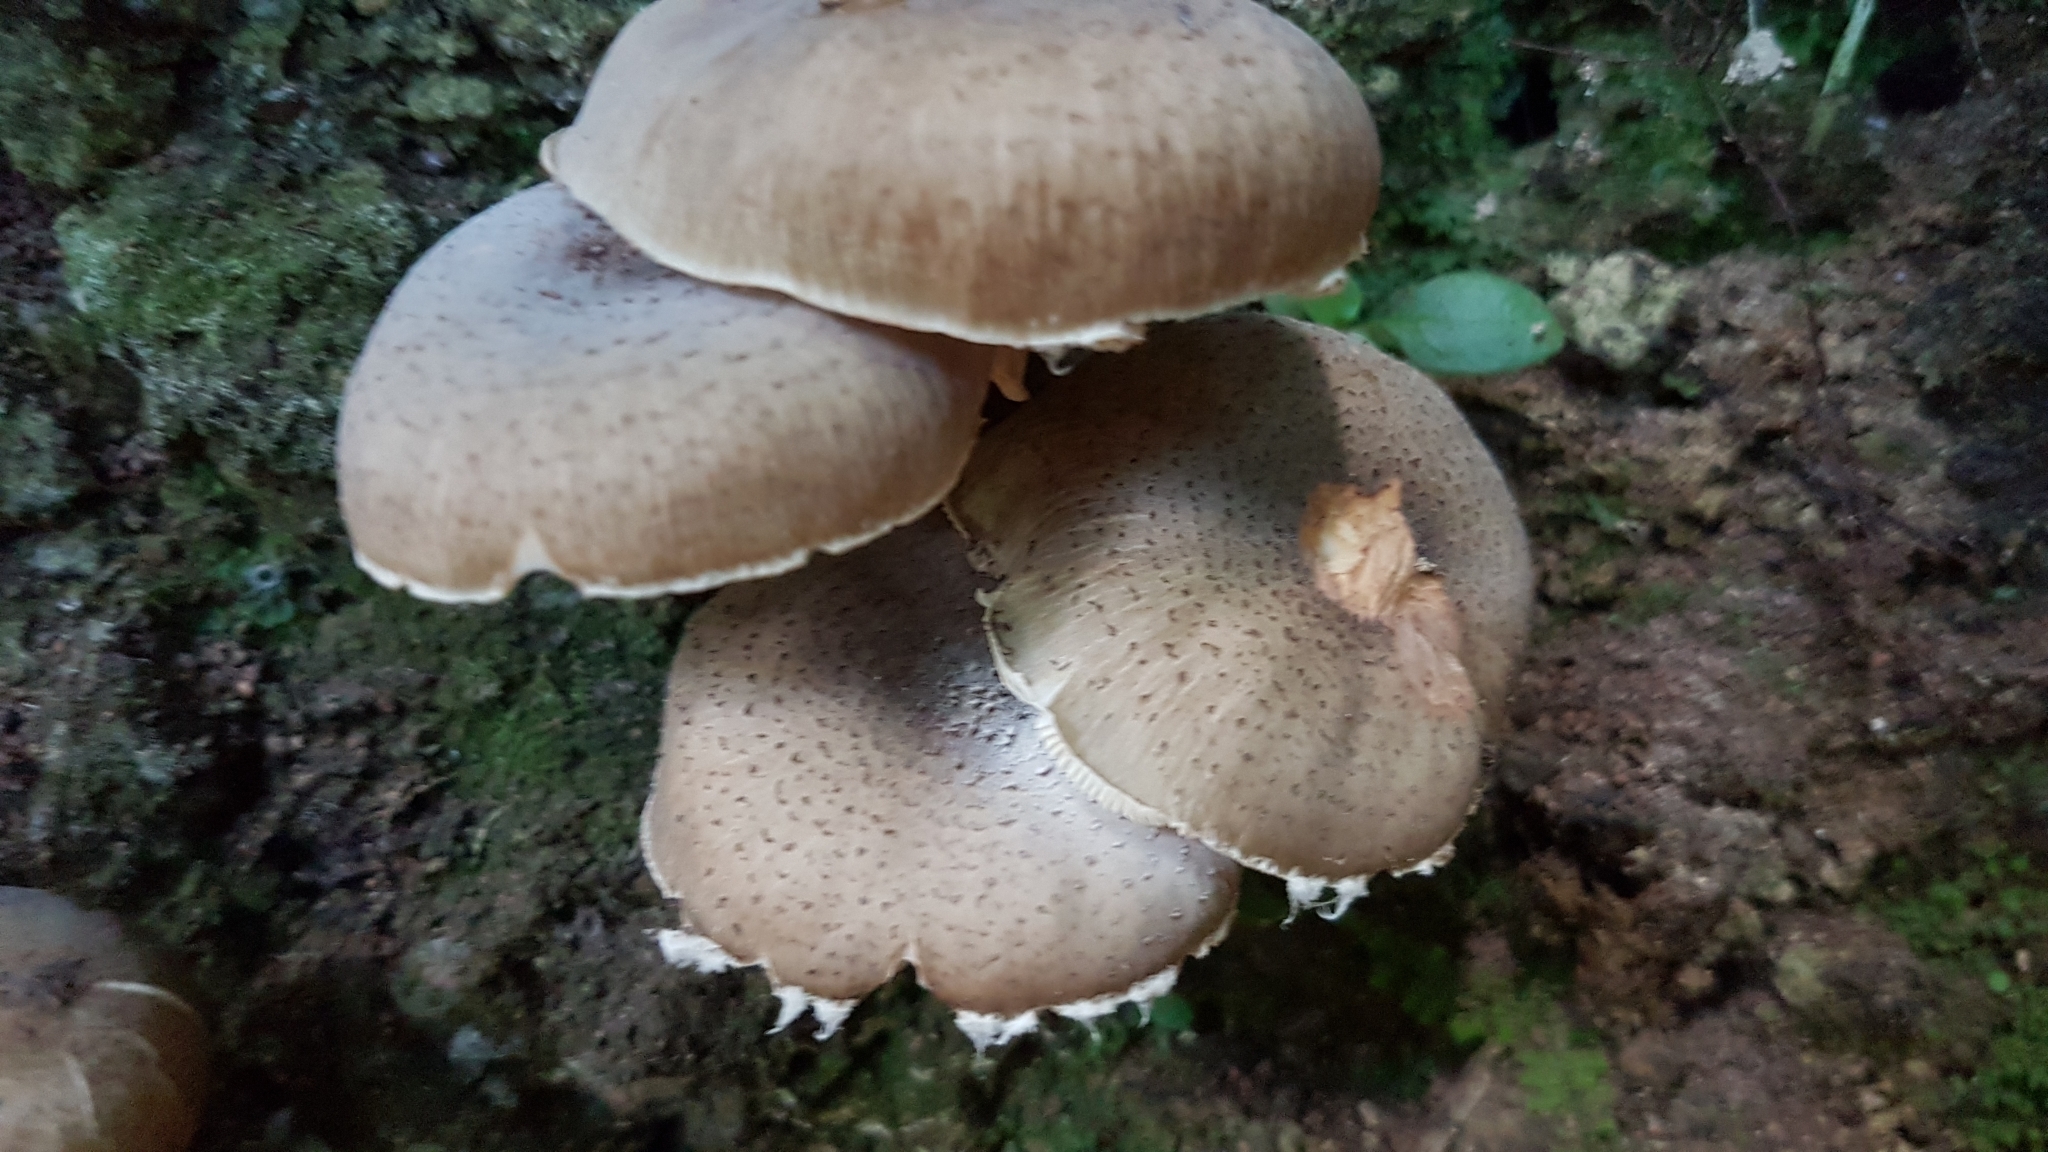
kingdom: Fungi
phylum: Basidiomycota
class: Agaricomycetes
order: Agaricales
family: Physalacriaceae
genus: Armillaria
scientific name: Armillaria novae-zelandiae
